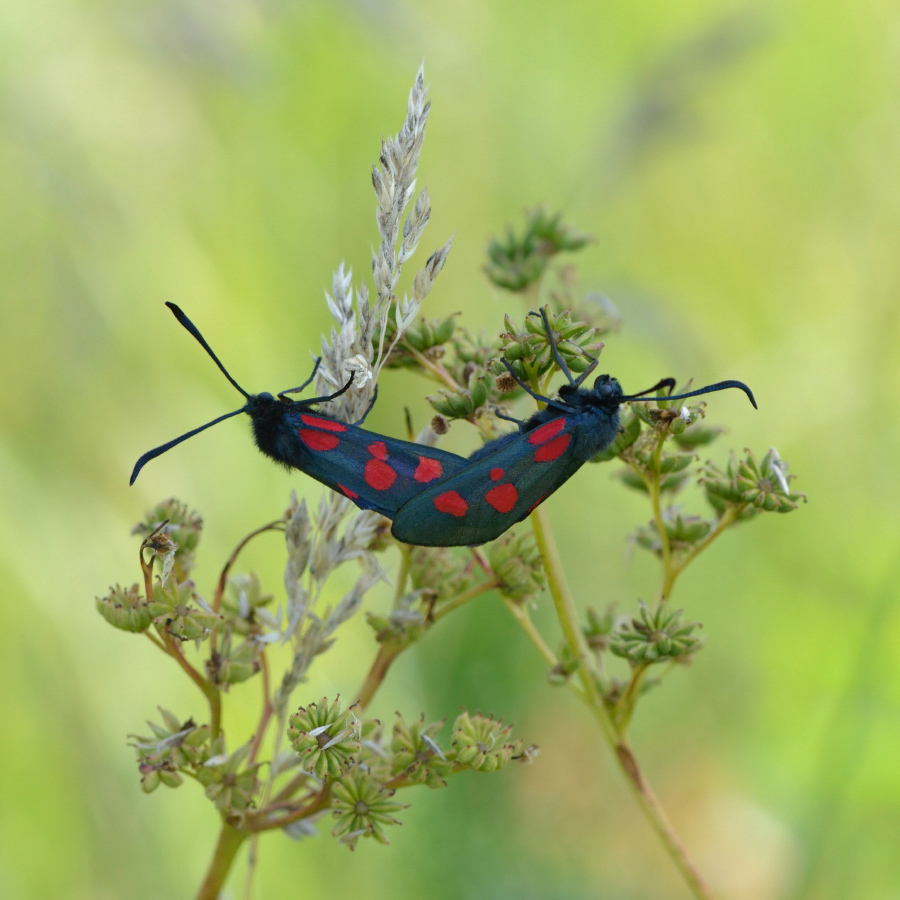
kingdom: Animalia
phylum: Arthropoda
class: Insecta
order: Lepidoptera
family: Zygaenidae
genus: Zygaena
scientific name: Zygaena lonicerae
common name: Narrow-bordered five-spot burnet
